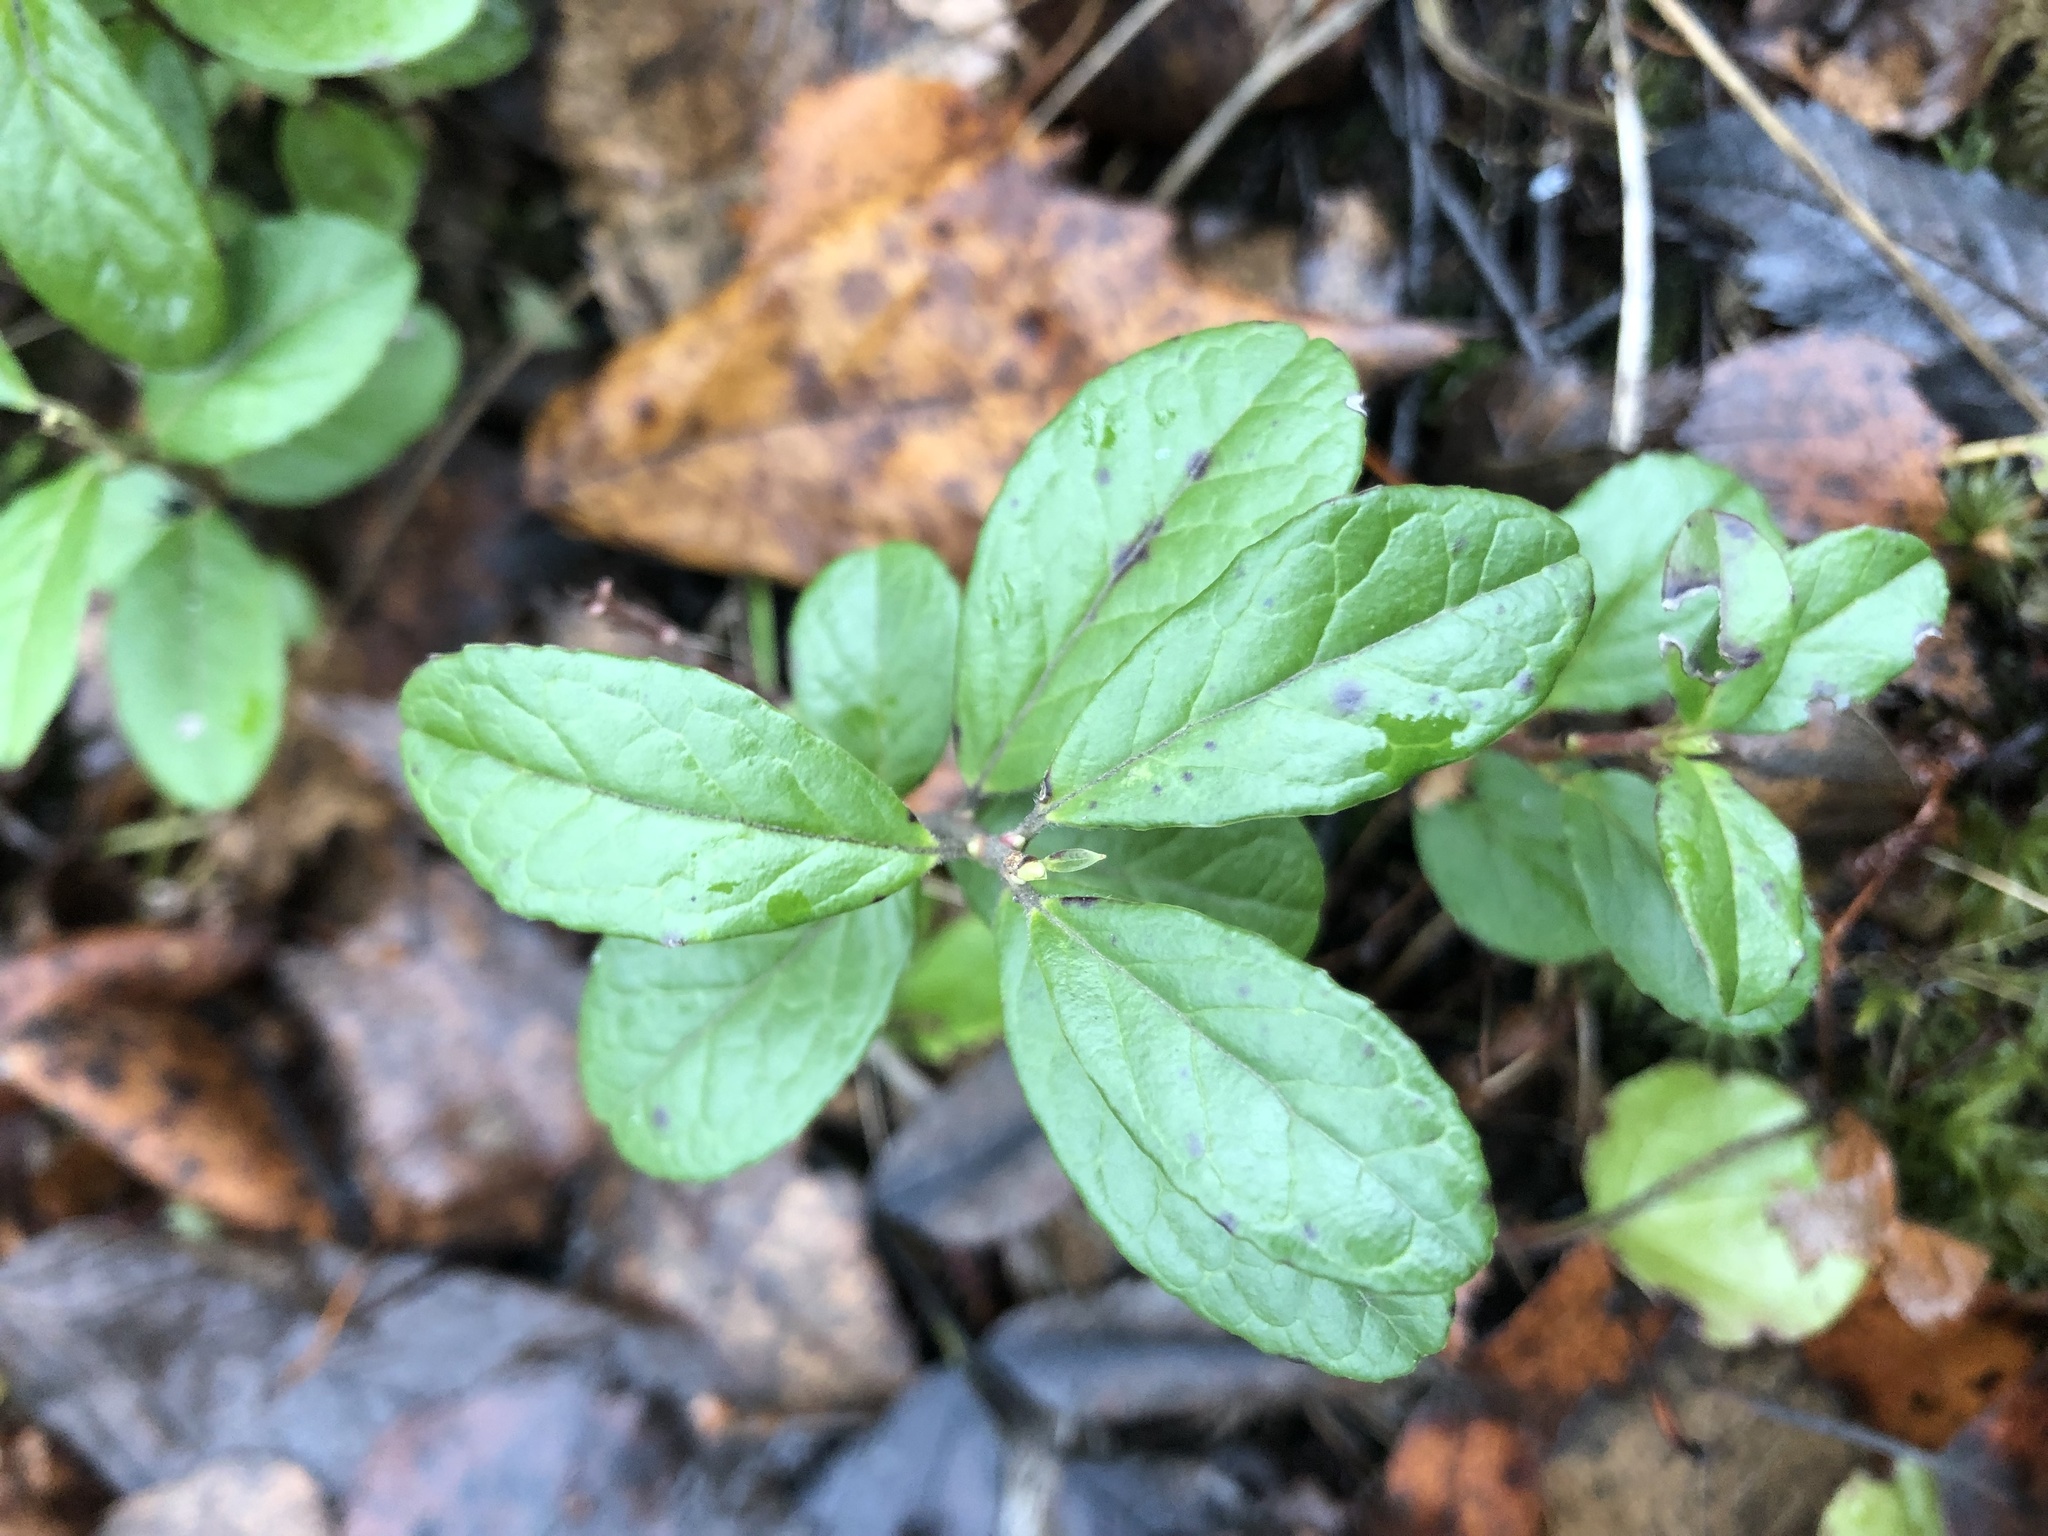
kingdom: Plantae
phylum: Tracheophyta
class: Magnoliopsida
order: Ericales
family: Ericaceae
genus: Vaccinium
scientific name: Vaccinium vitis-idaea
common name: Cowberry
